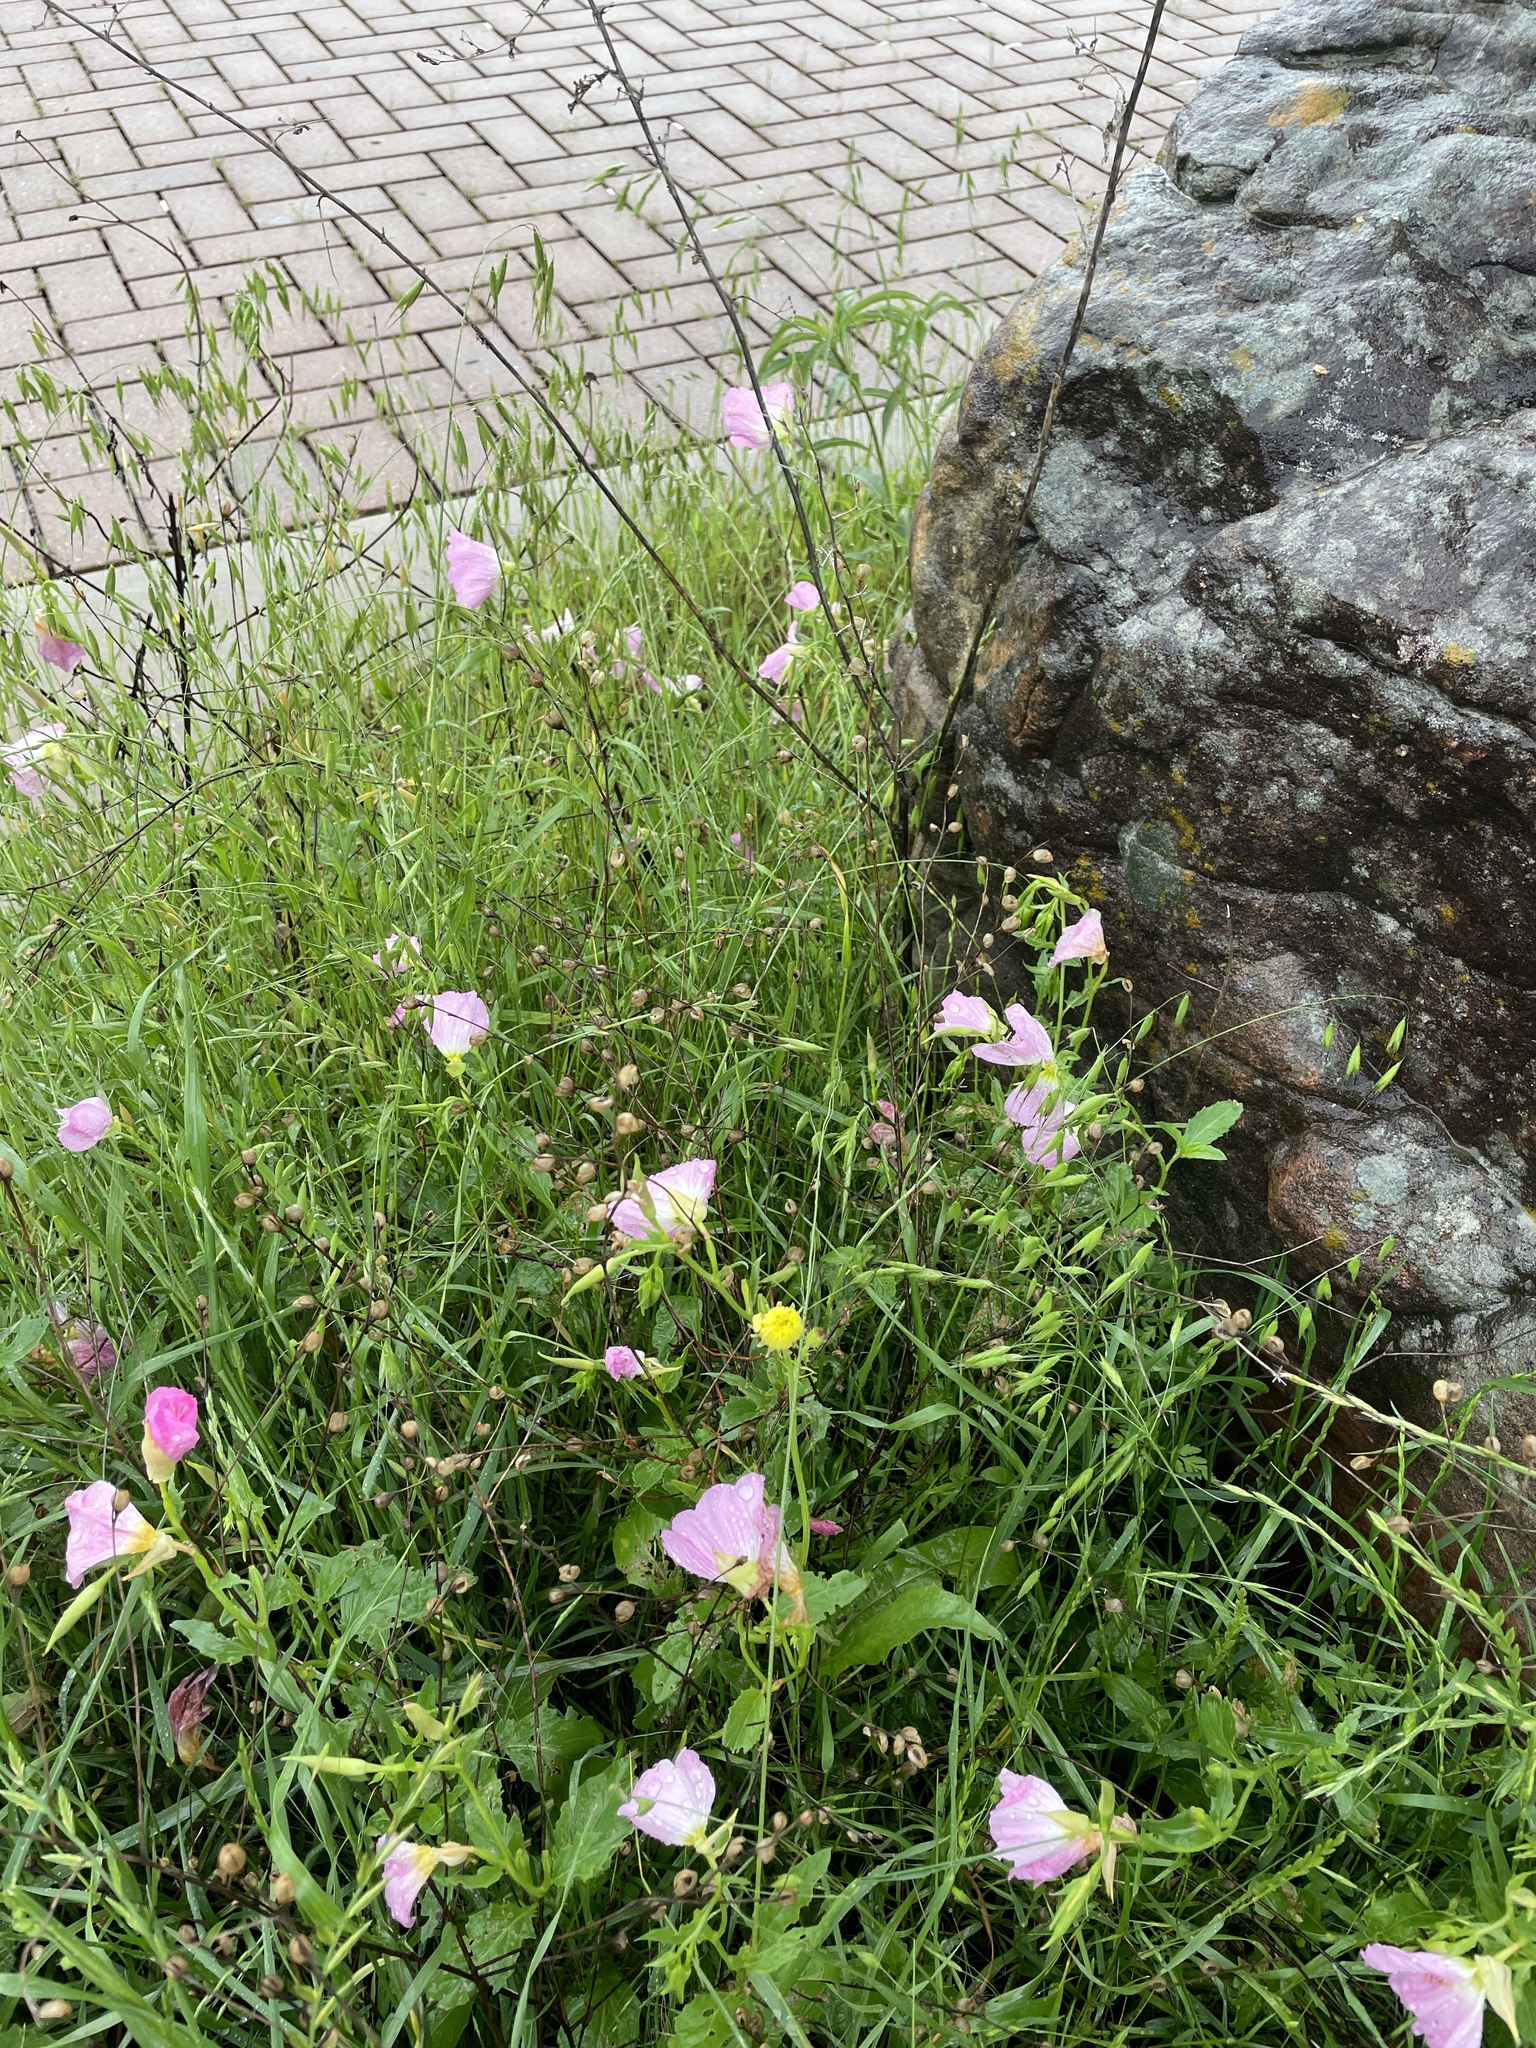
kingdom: Plantae
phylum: Tracheophyta
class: Magnoliopsida
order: Lamiales
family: Orobanchaceae
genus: Agalinis
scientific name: Agalinis heterophylla
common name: Prairie agalinis
